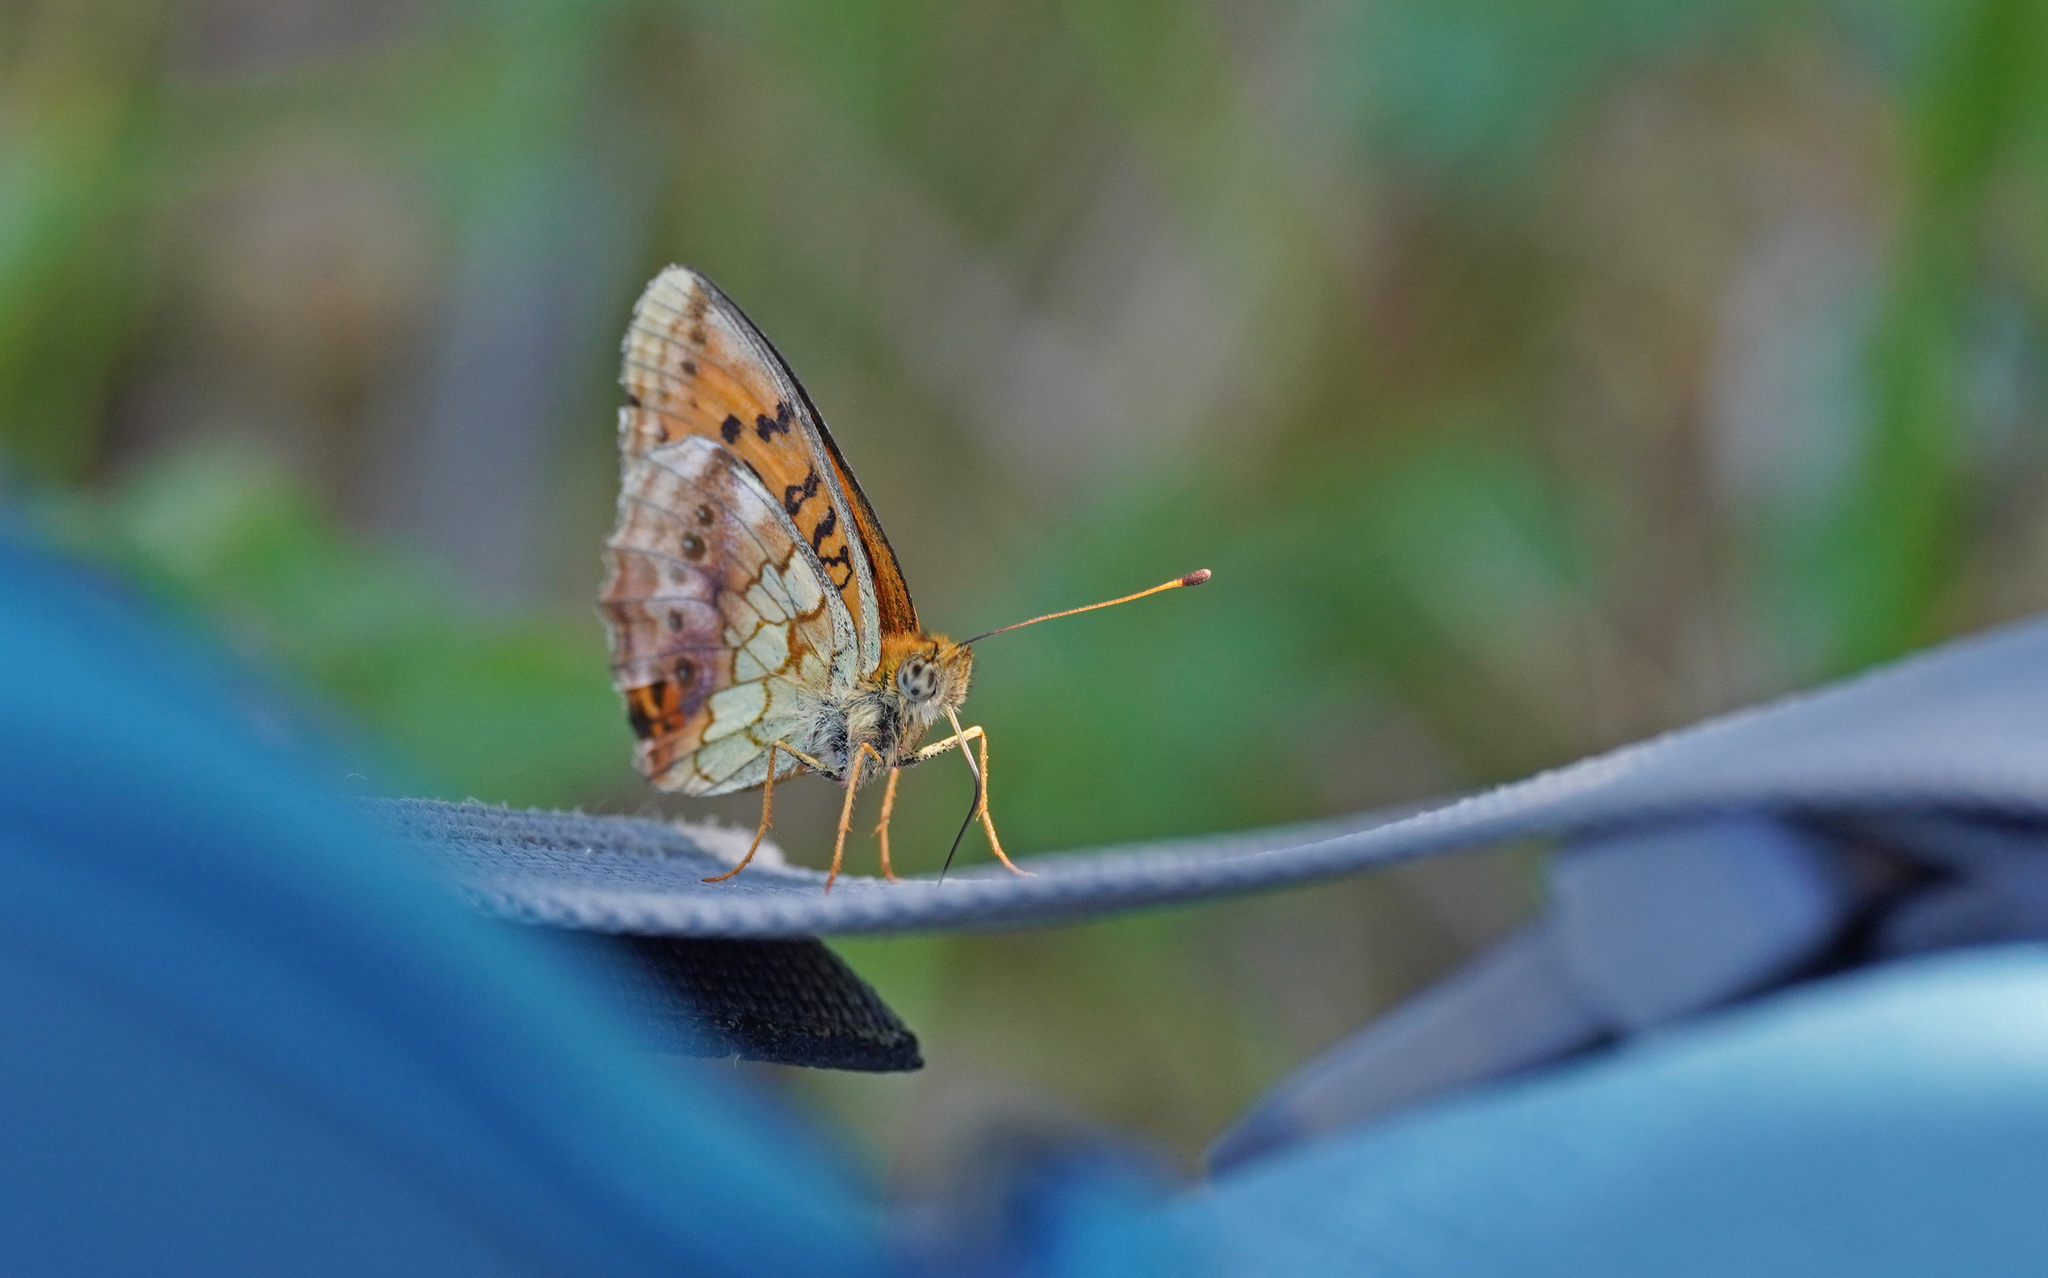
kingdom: Animalia
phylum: Arthropoda
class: Insecta
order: Lepidoptera
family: Nymphalidae
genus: Brenthis
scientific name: Brenthis daphne
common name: Marbled fritillary
